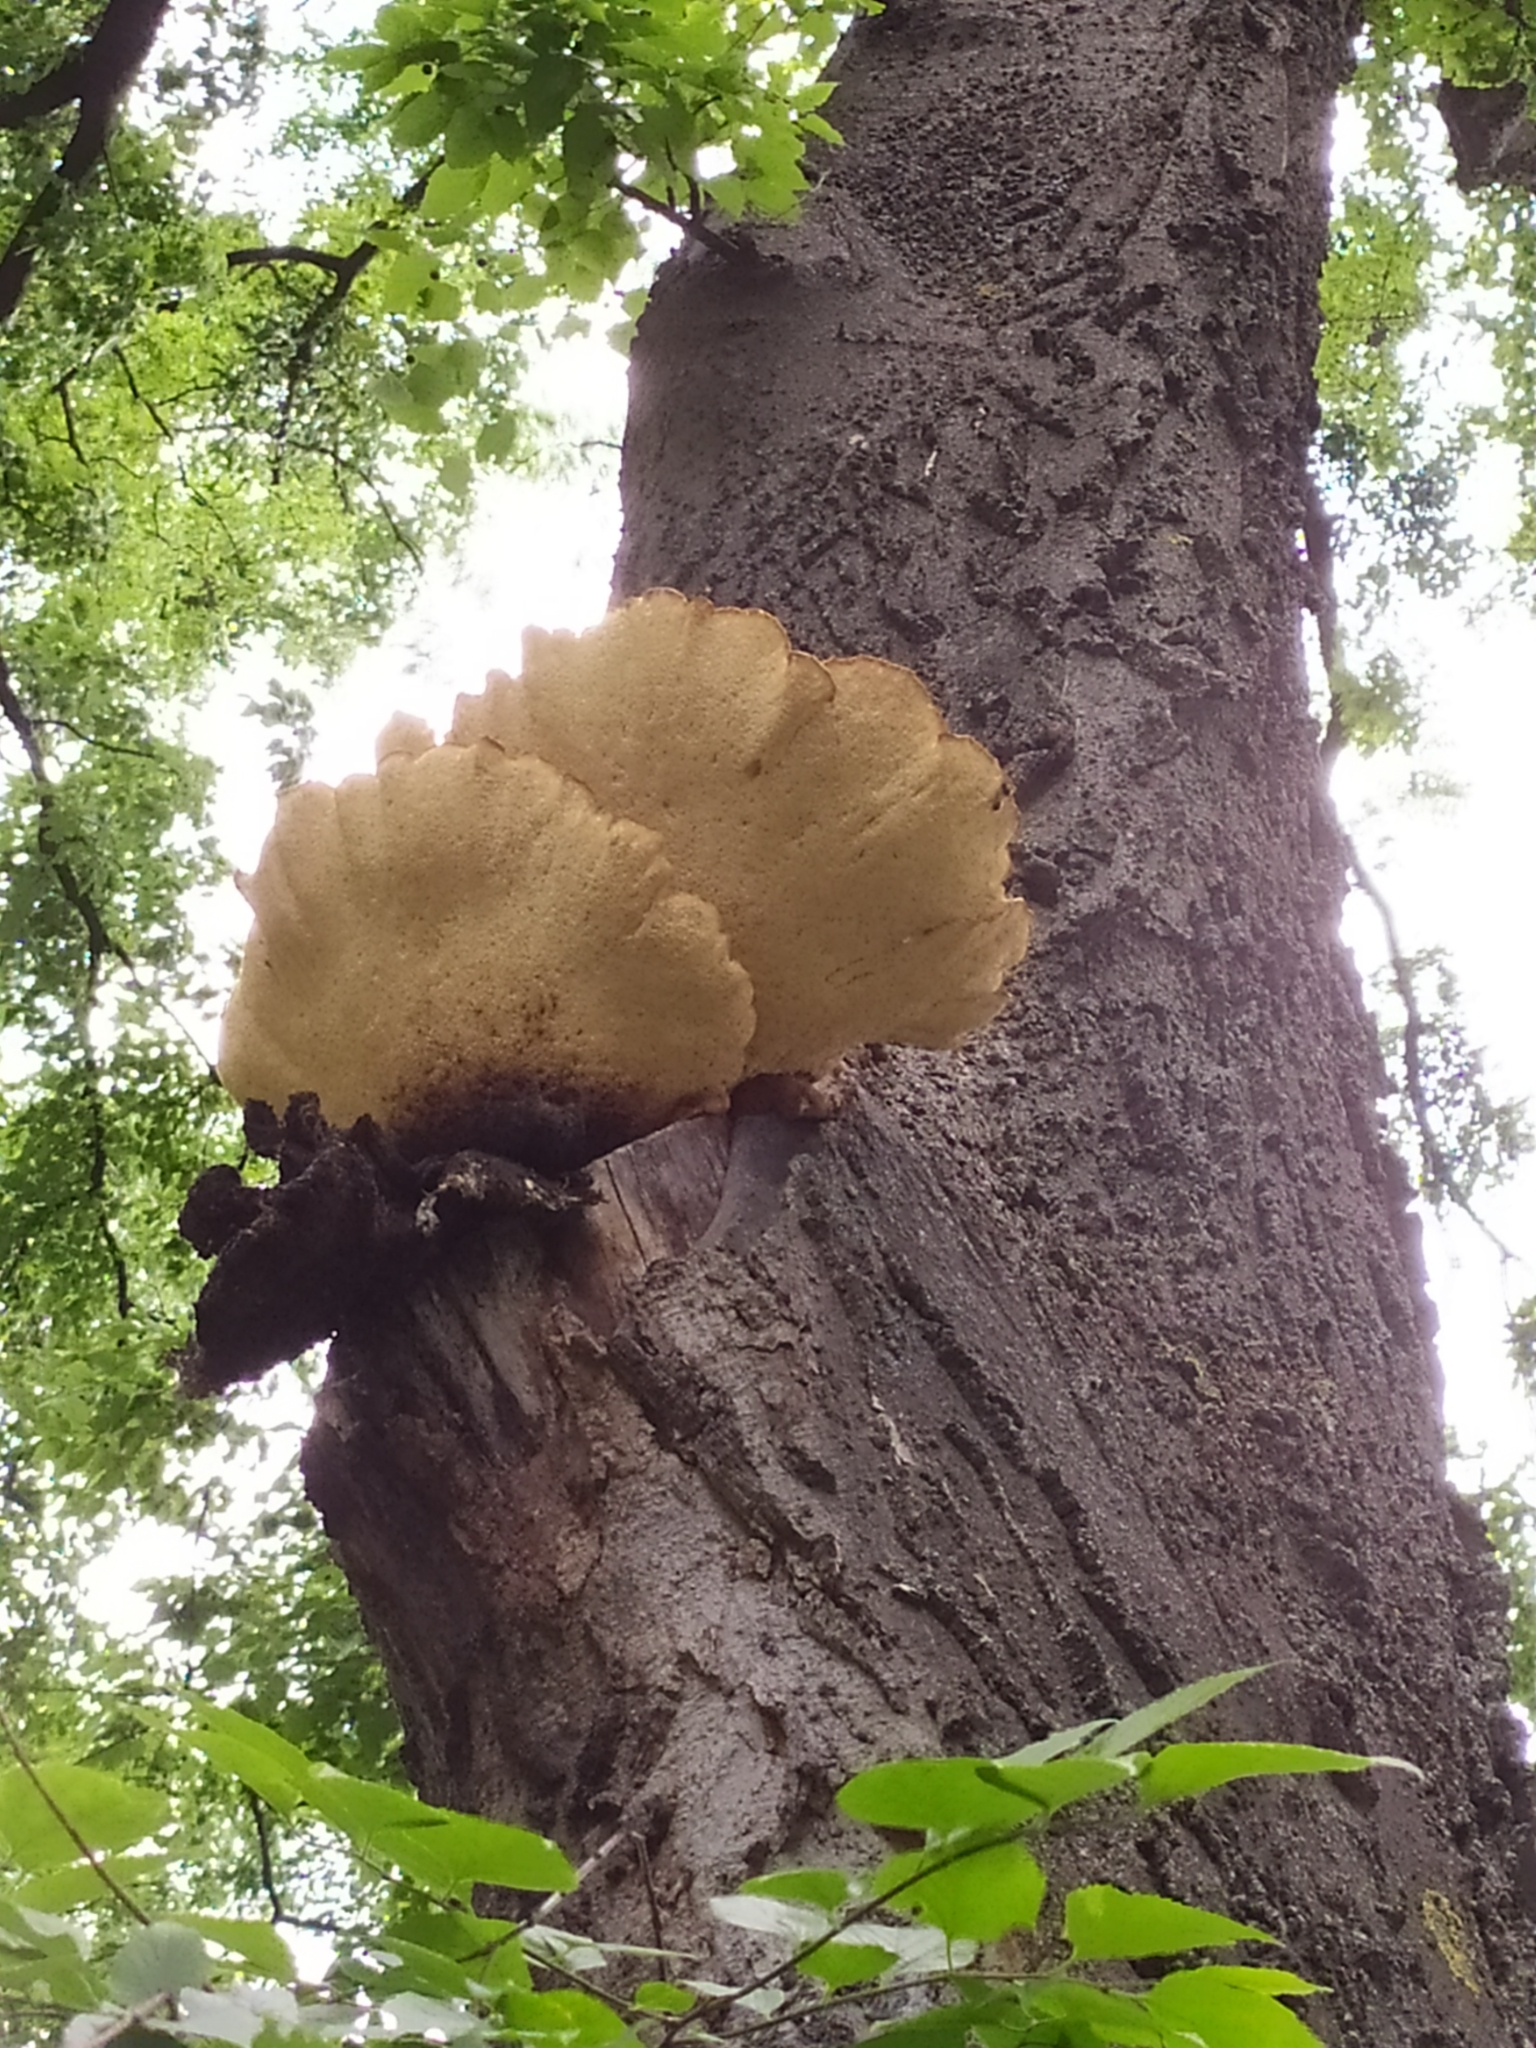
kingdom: Fungi
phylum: Basidiomycota
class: Agaricomycetes
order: Polyporales
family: Polyporaceae
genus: Cerioporus
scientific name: Cerioporus squamosus
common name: Dryad's saddle
